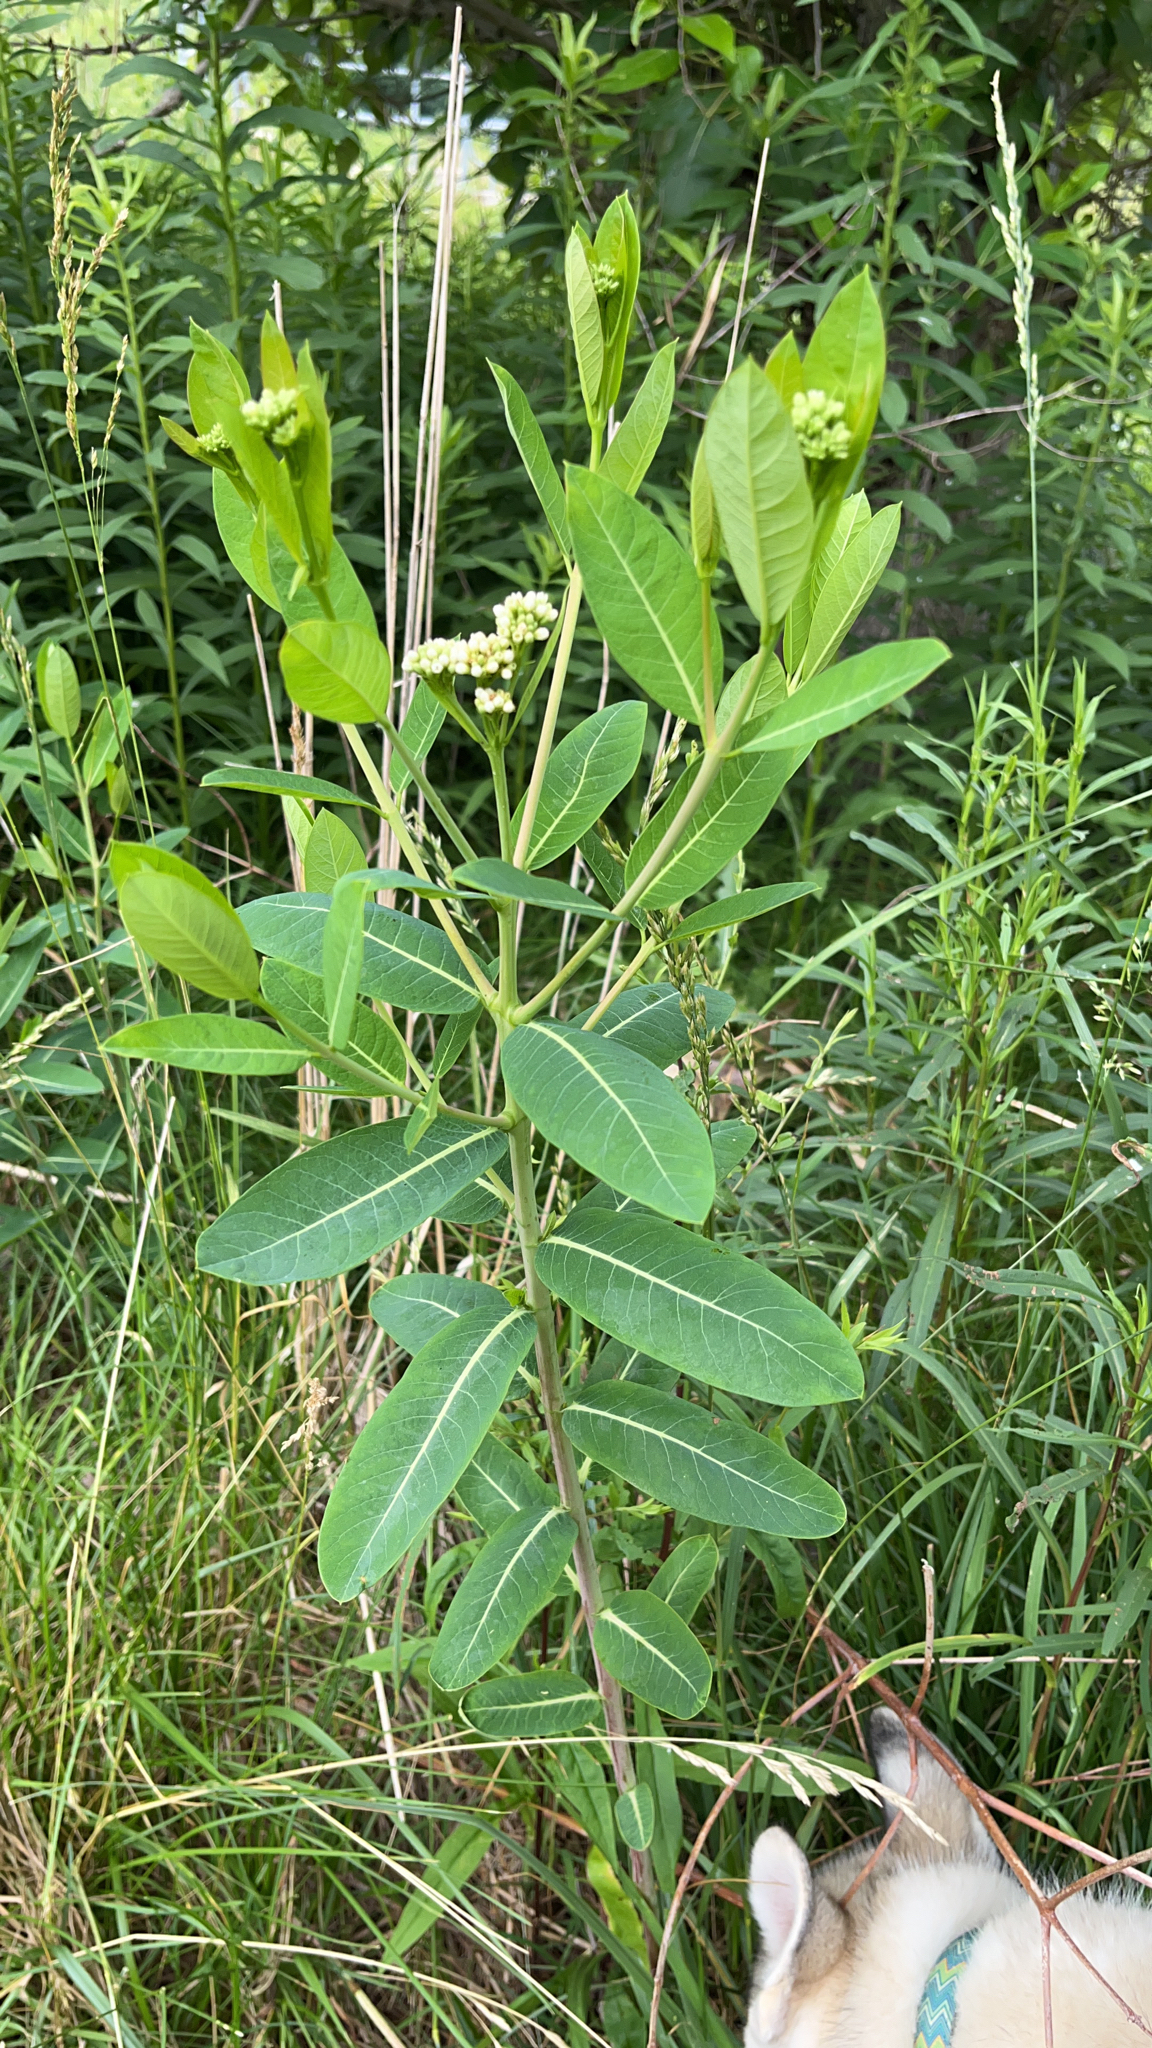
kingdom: Plantae
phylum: Tracheophyta
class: Magnoliopsida
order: Gentianales
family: Apocynaceae
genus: Apocynum
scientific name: Apocynum cannabinum
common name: Hemp dogbane
